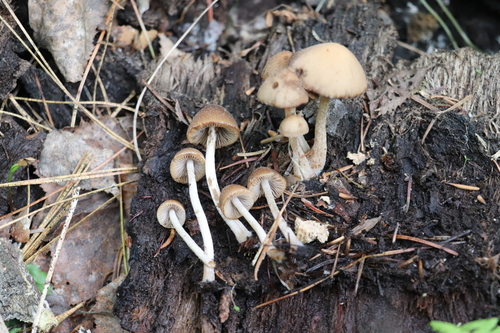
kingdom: Fungi
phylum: Basidiomycota
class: Agaricomycetes
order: Agaricales
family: Psathyrellaceae
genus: Psathyrella
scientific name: Psathyrella fatua
